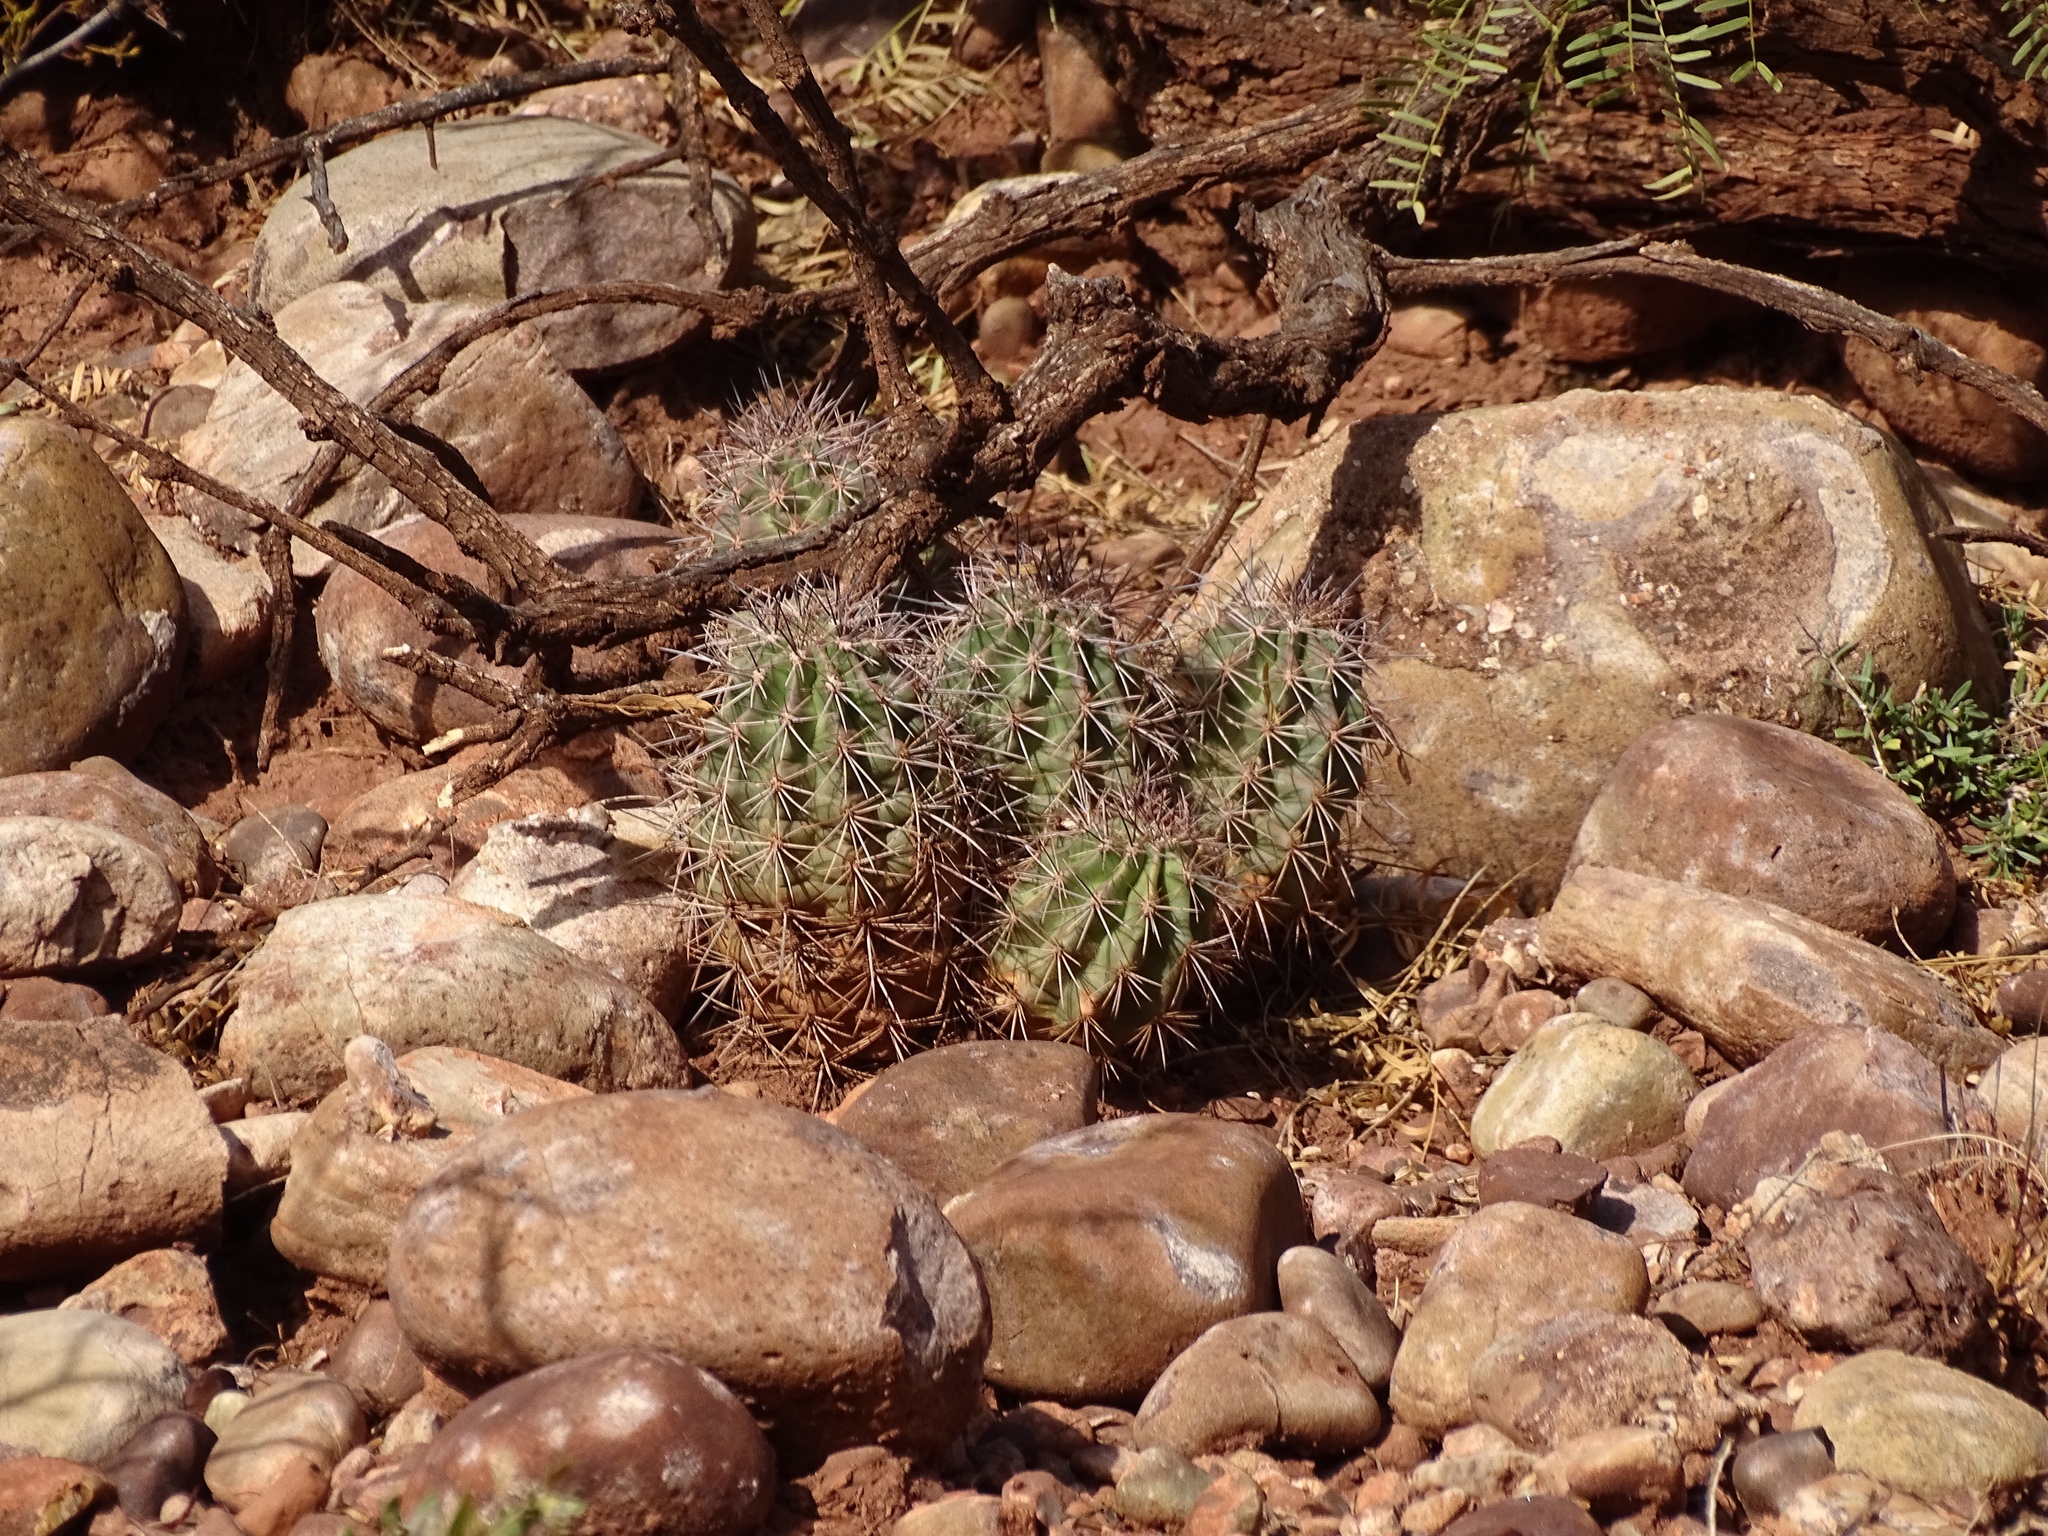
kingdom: Plantae
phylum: Tracheophyta
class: Magnoliopsida
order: Caryophyllales
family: Cactaceae
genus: Echinocereus
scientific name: Echinocereus coccineus
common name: Scarlet hedgehog cactus
